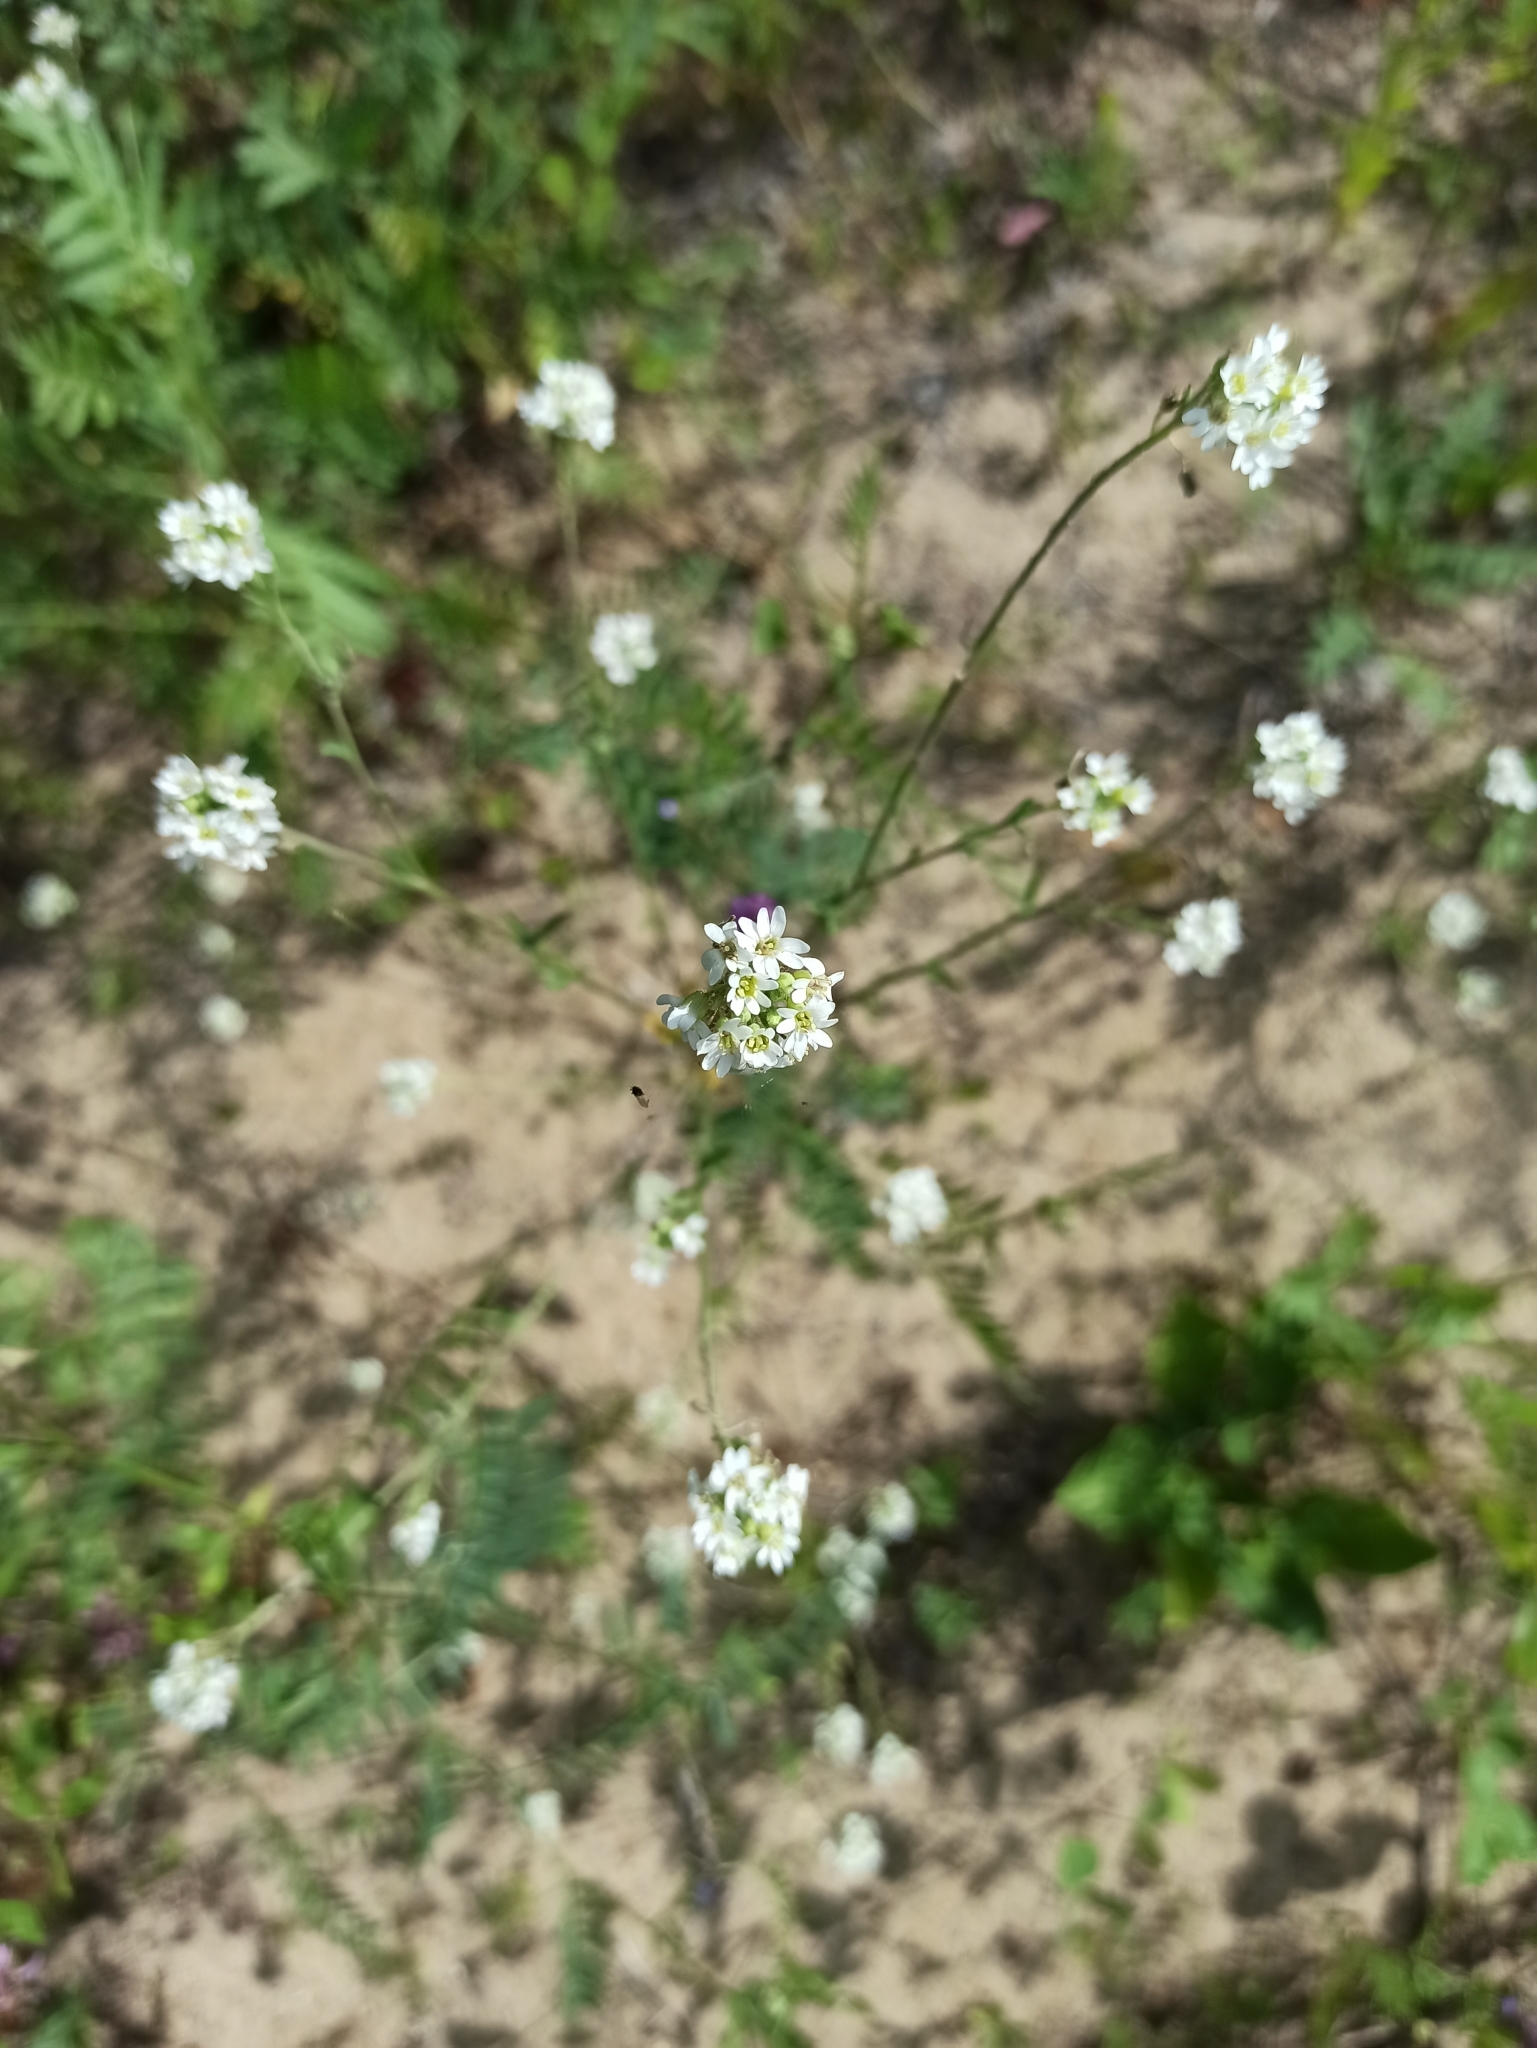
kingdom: Plantae
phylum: Tracheophyta
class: Magnoliopsida
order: Brassicales
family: Brassicaceae
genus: Berteroa
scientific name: Berteroa incana
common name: Hoary alison
